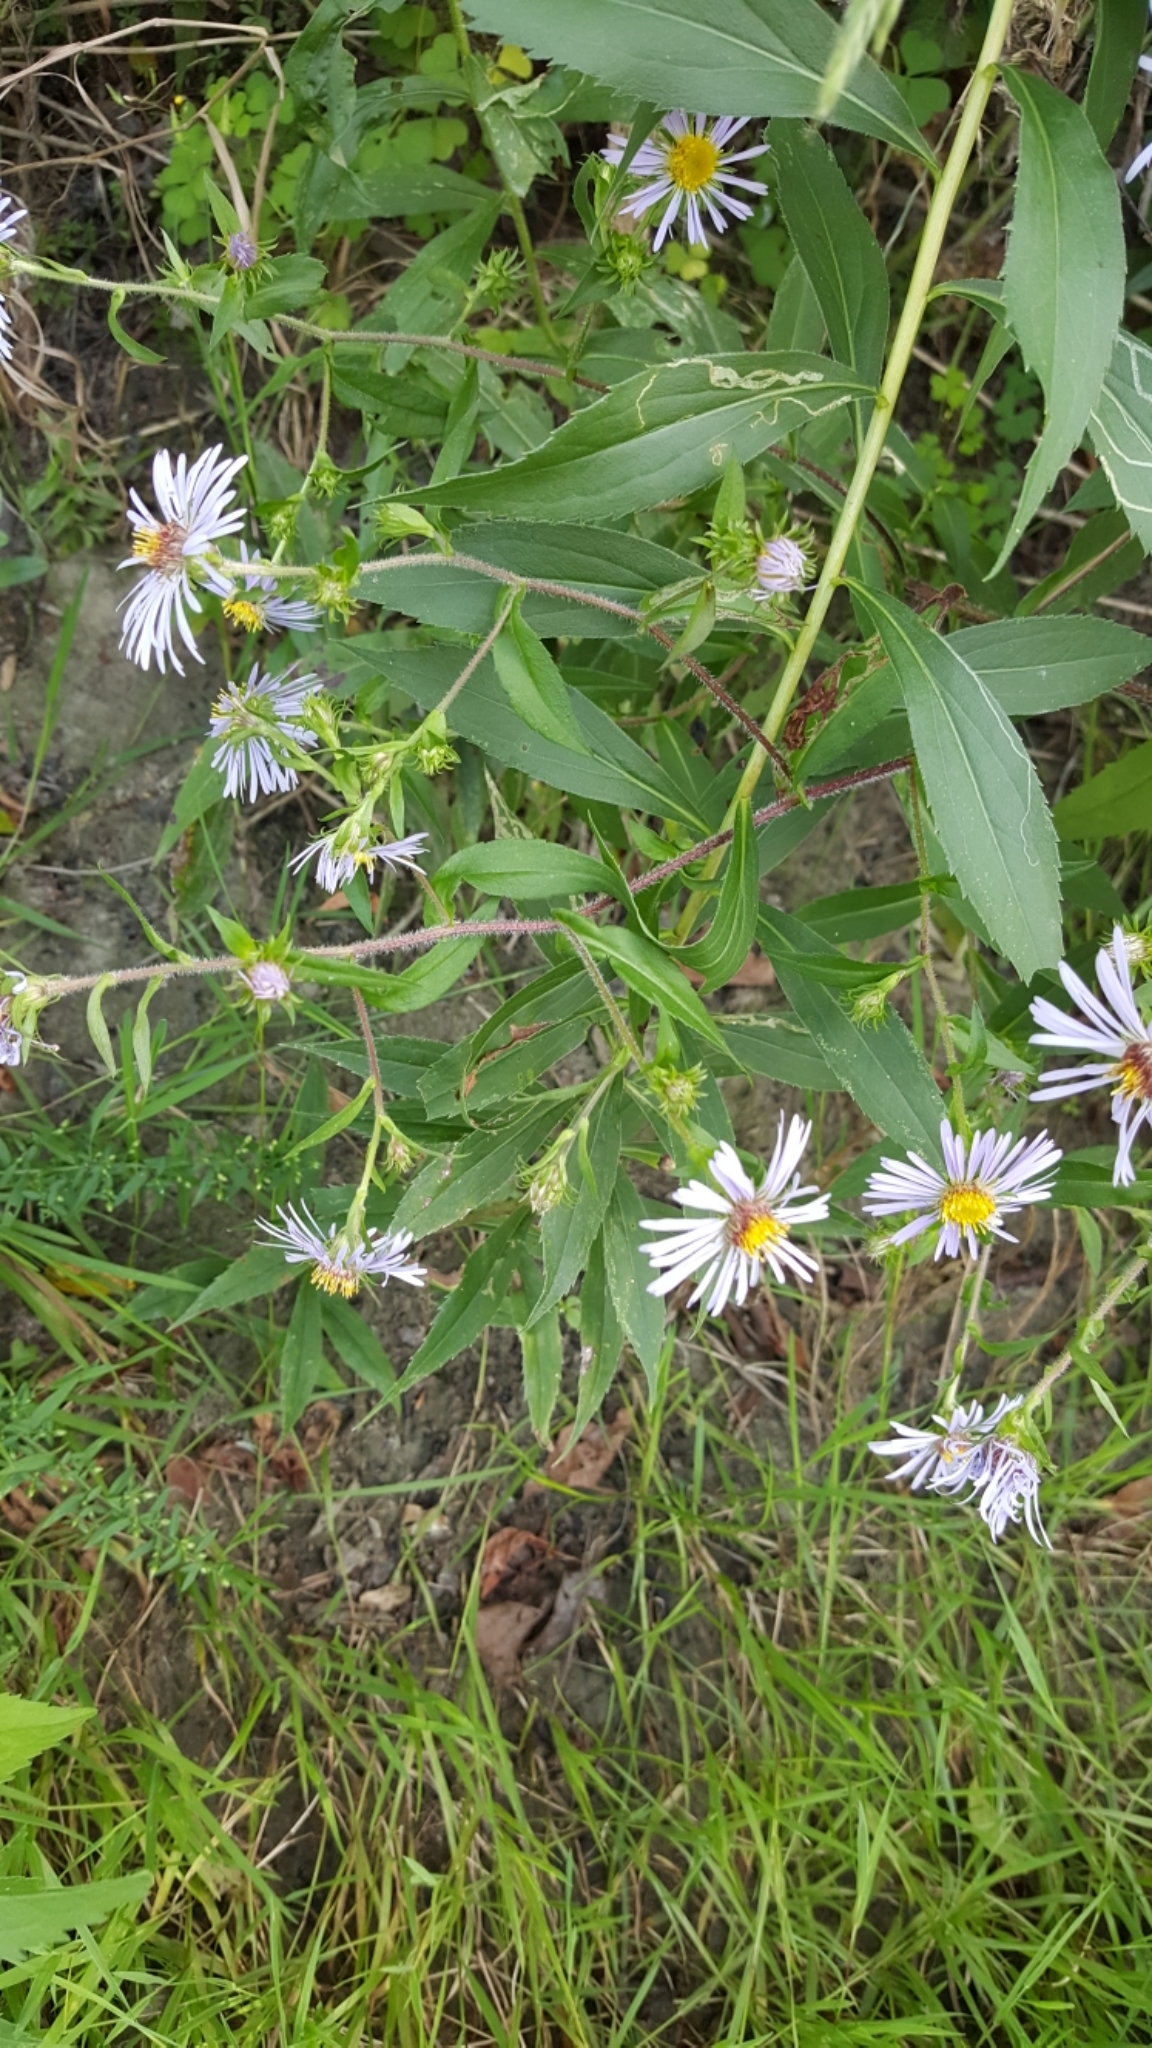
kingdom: Plantae
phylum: Tracheophyta
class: Magnoliopsida
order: Asterales
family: Asteraceae
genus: Symphyotrichum
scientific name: Symphyotrichum puniceum
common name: Bog aster
